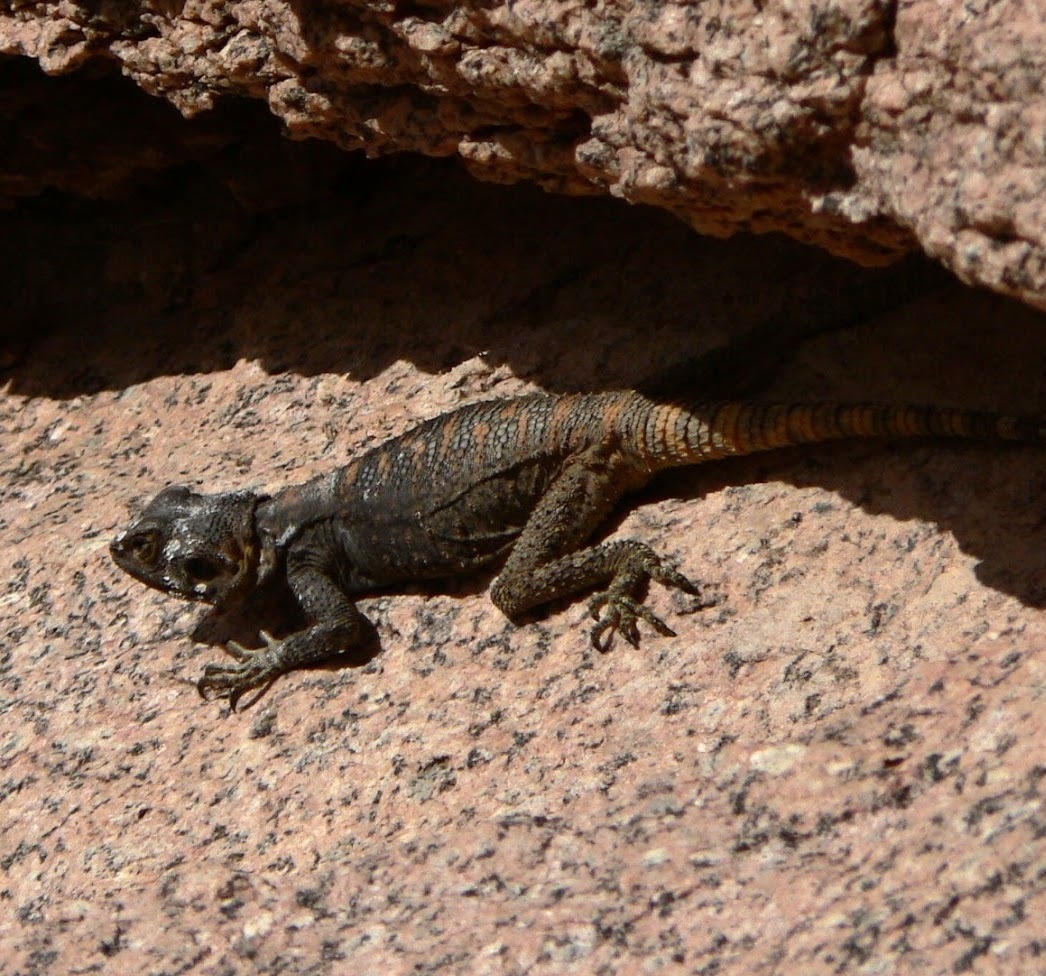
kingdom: Animalia
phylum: Chordata
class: Squamata
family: Agamidae
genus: Laudakia
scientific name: Laudakia vulgaris
